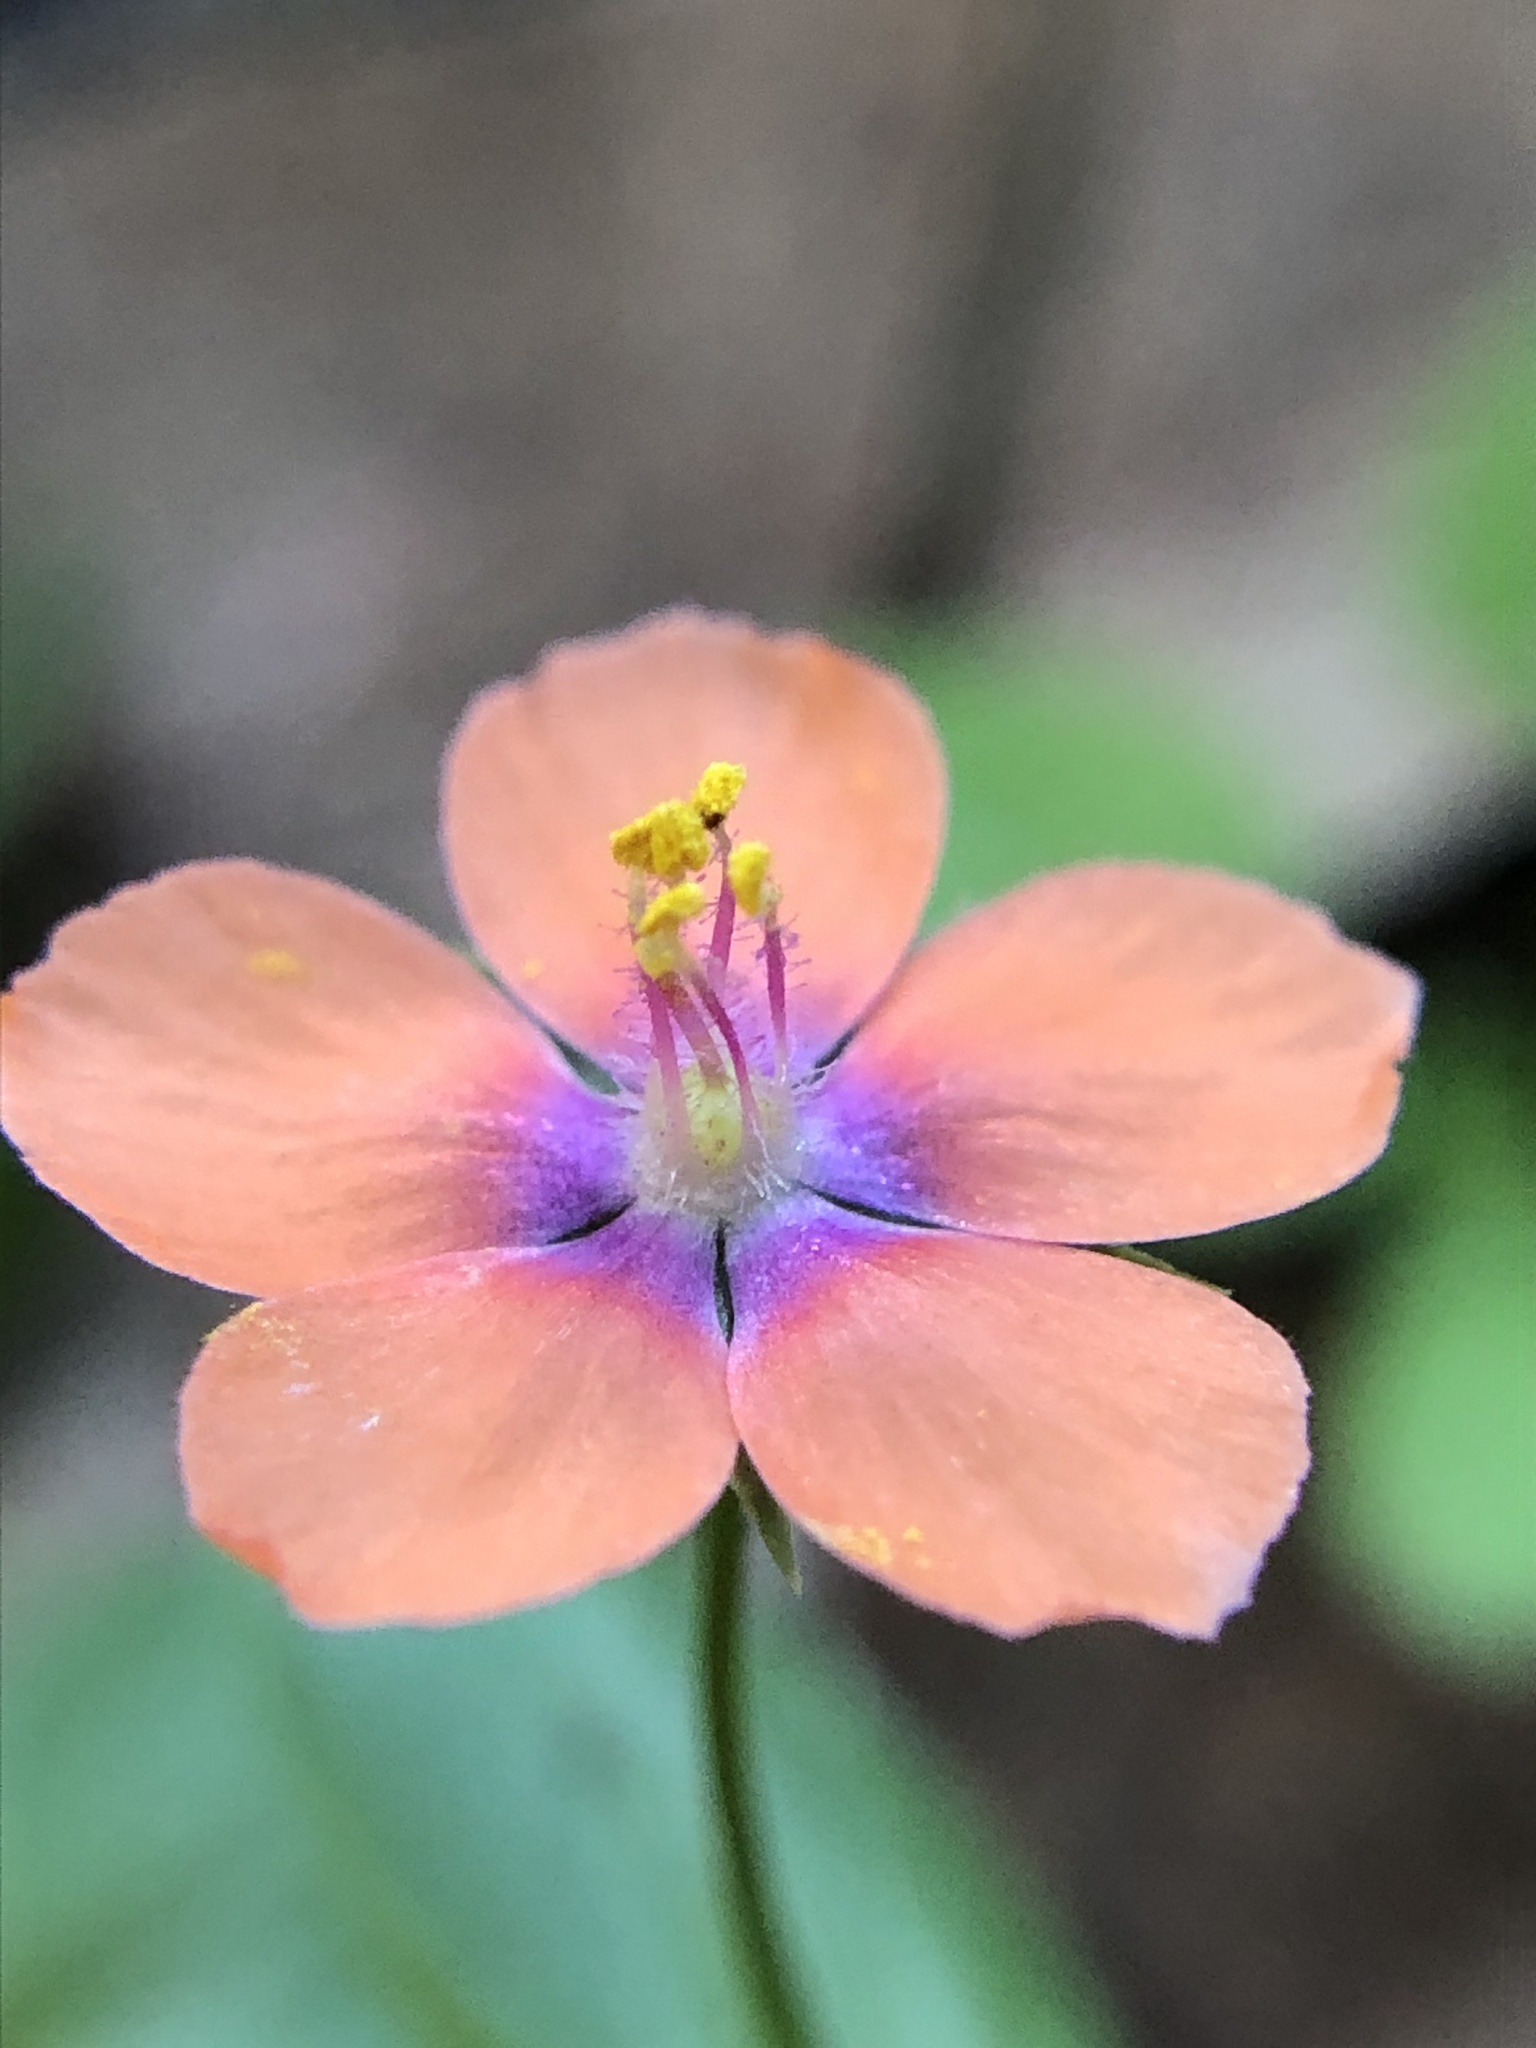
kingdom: Plantae
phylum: Tracheophyta
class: Magnoliopsida
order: Ericales
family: Primulaceae
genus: Lysimachia
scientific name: Lysimachia arvensis
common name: Scarlet pimpernel
